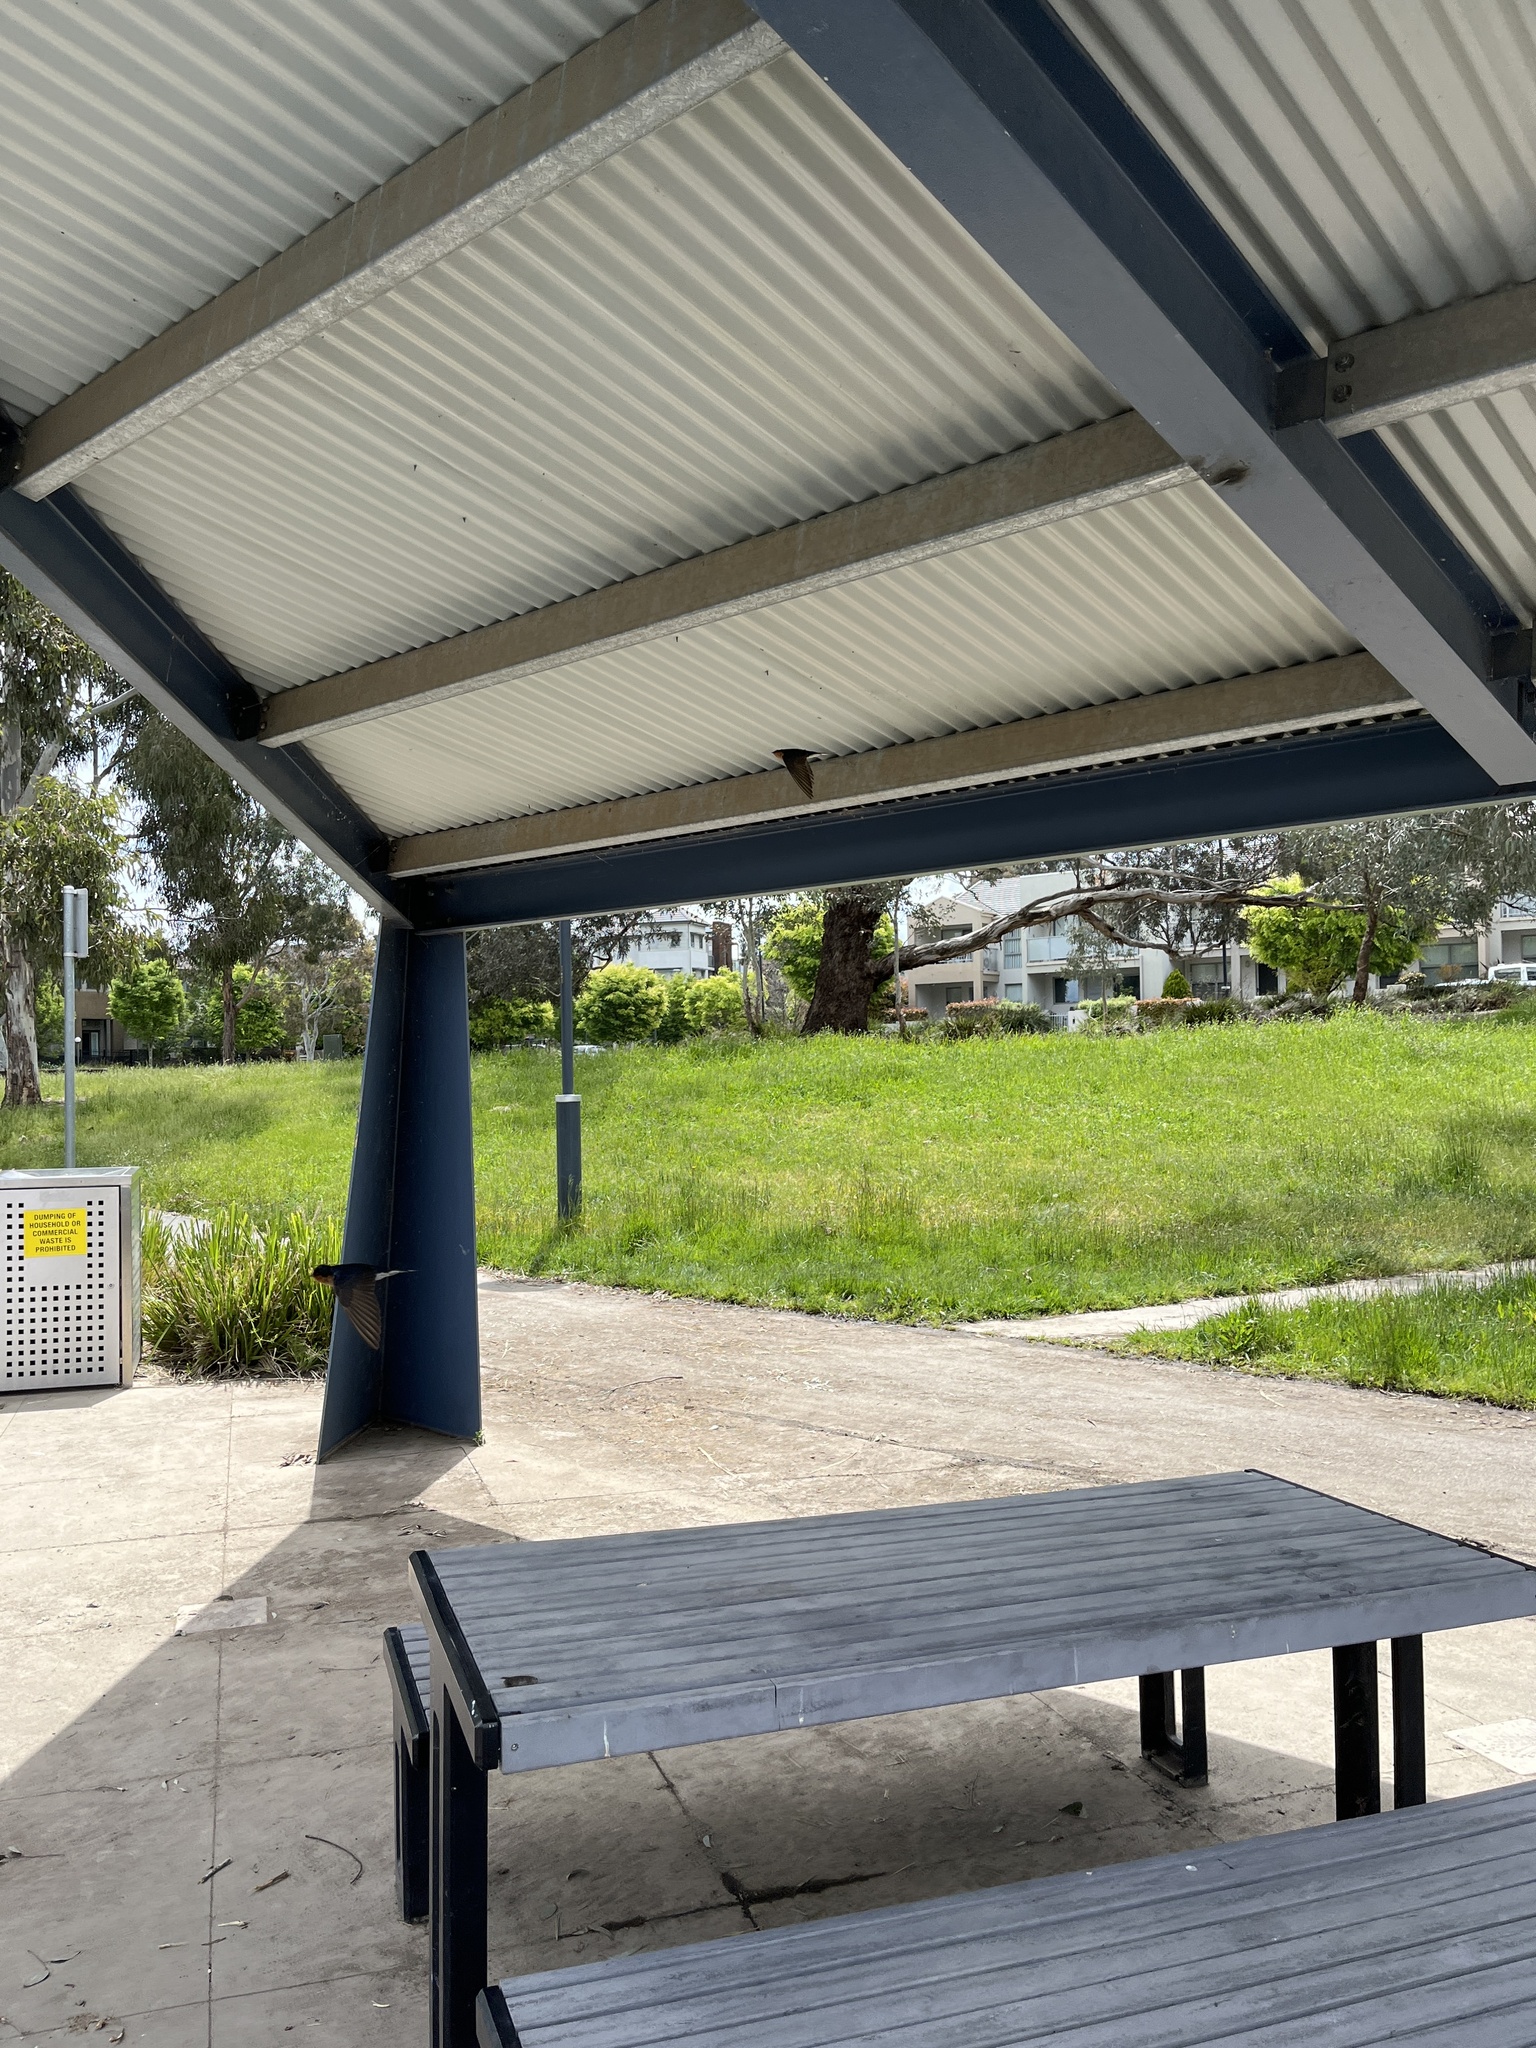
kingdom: Animalia
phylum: Chordata
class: Aves
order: Passeriformes
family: Hirundinidae
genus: Hirundo
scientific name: Hirundo neoxena
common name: Welcome swallow
